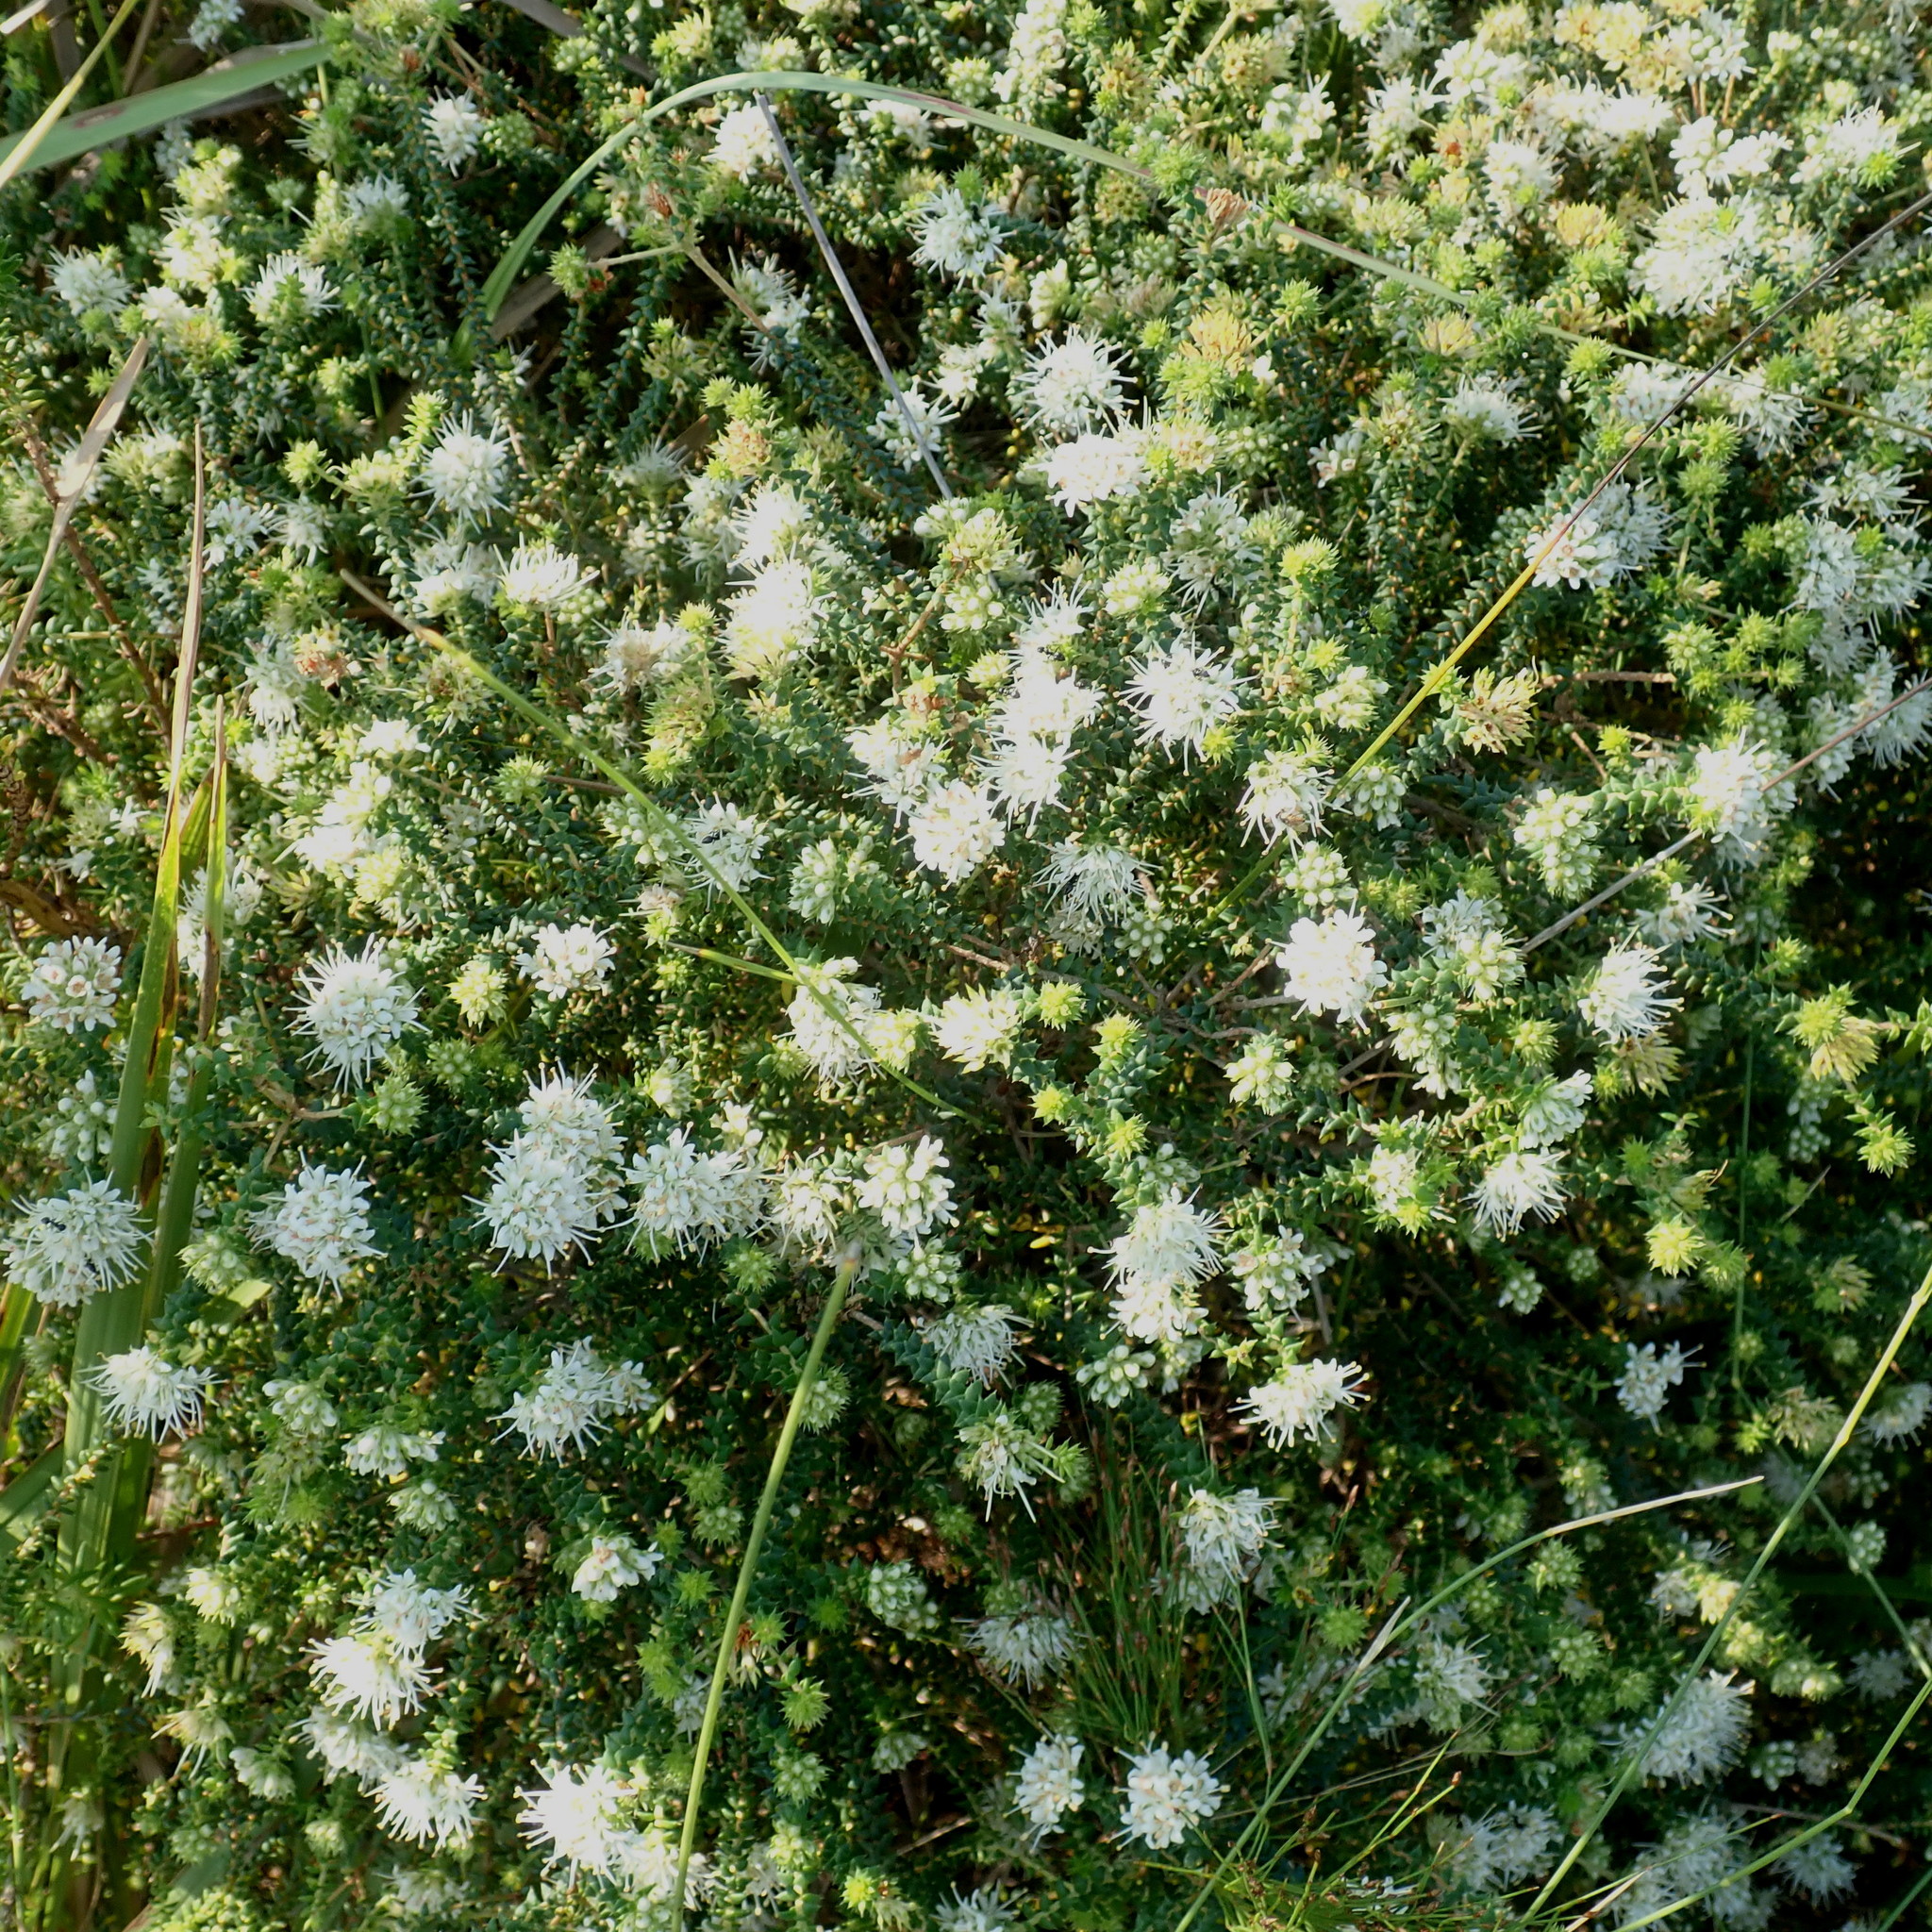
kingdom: Plantae
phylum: Tracheophyta
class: Magnoliopsida
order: Sapindales
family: Rutaceae
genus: Agathosma
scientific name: Agathosma apiculata
